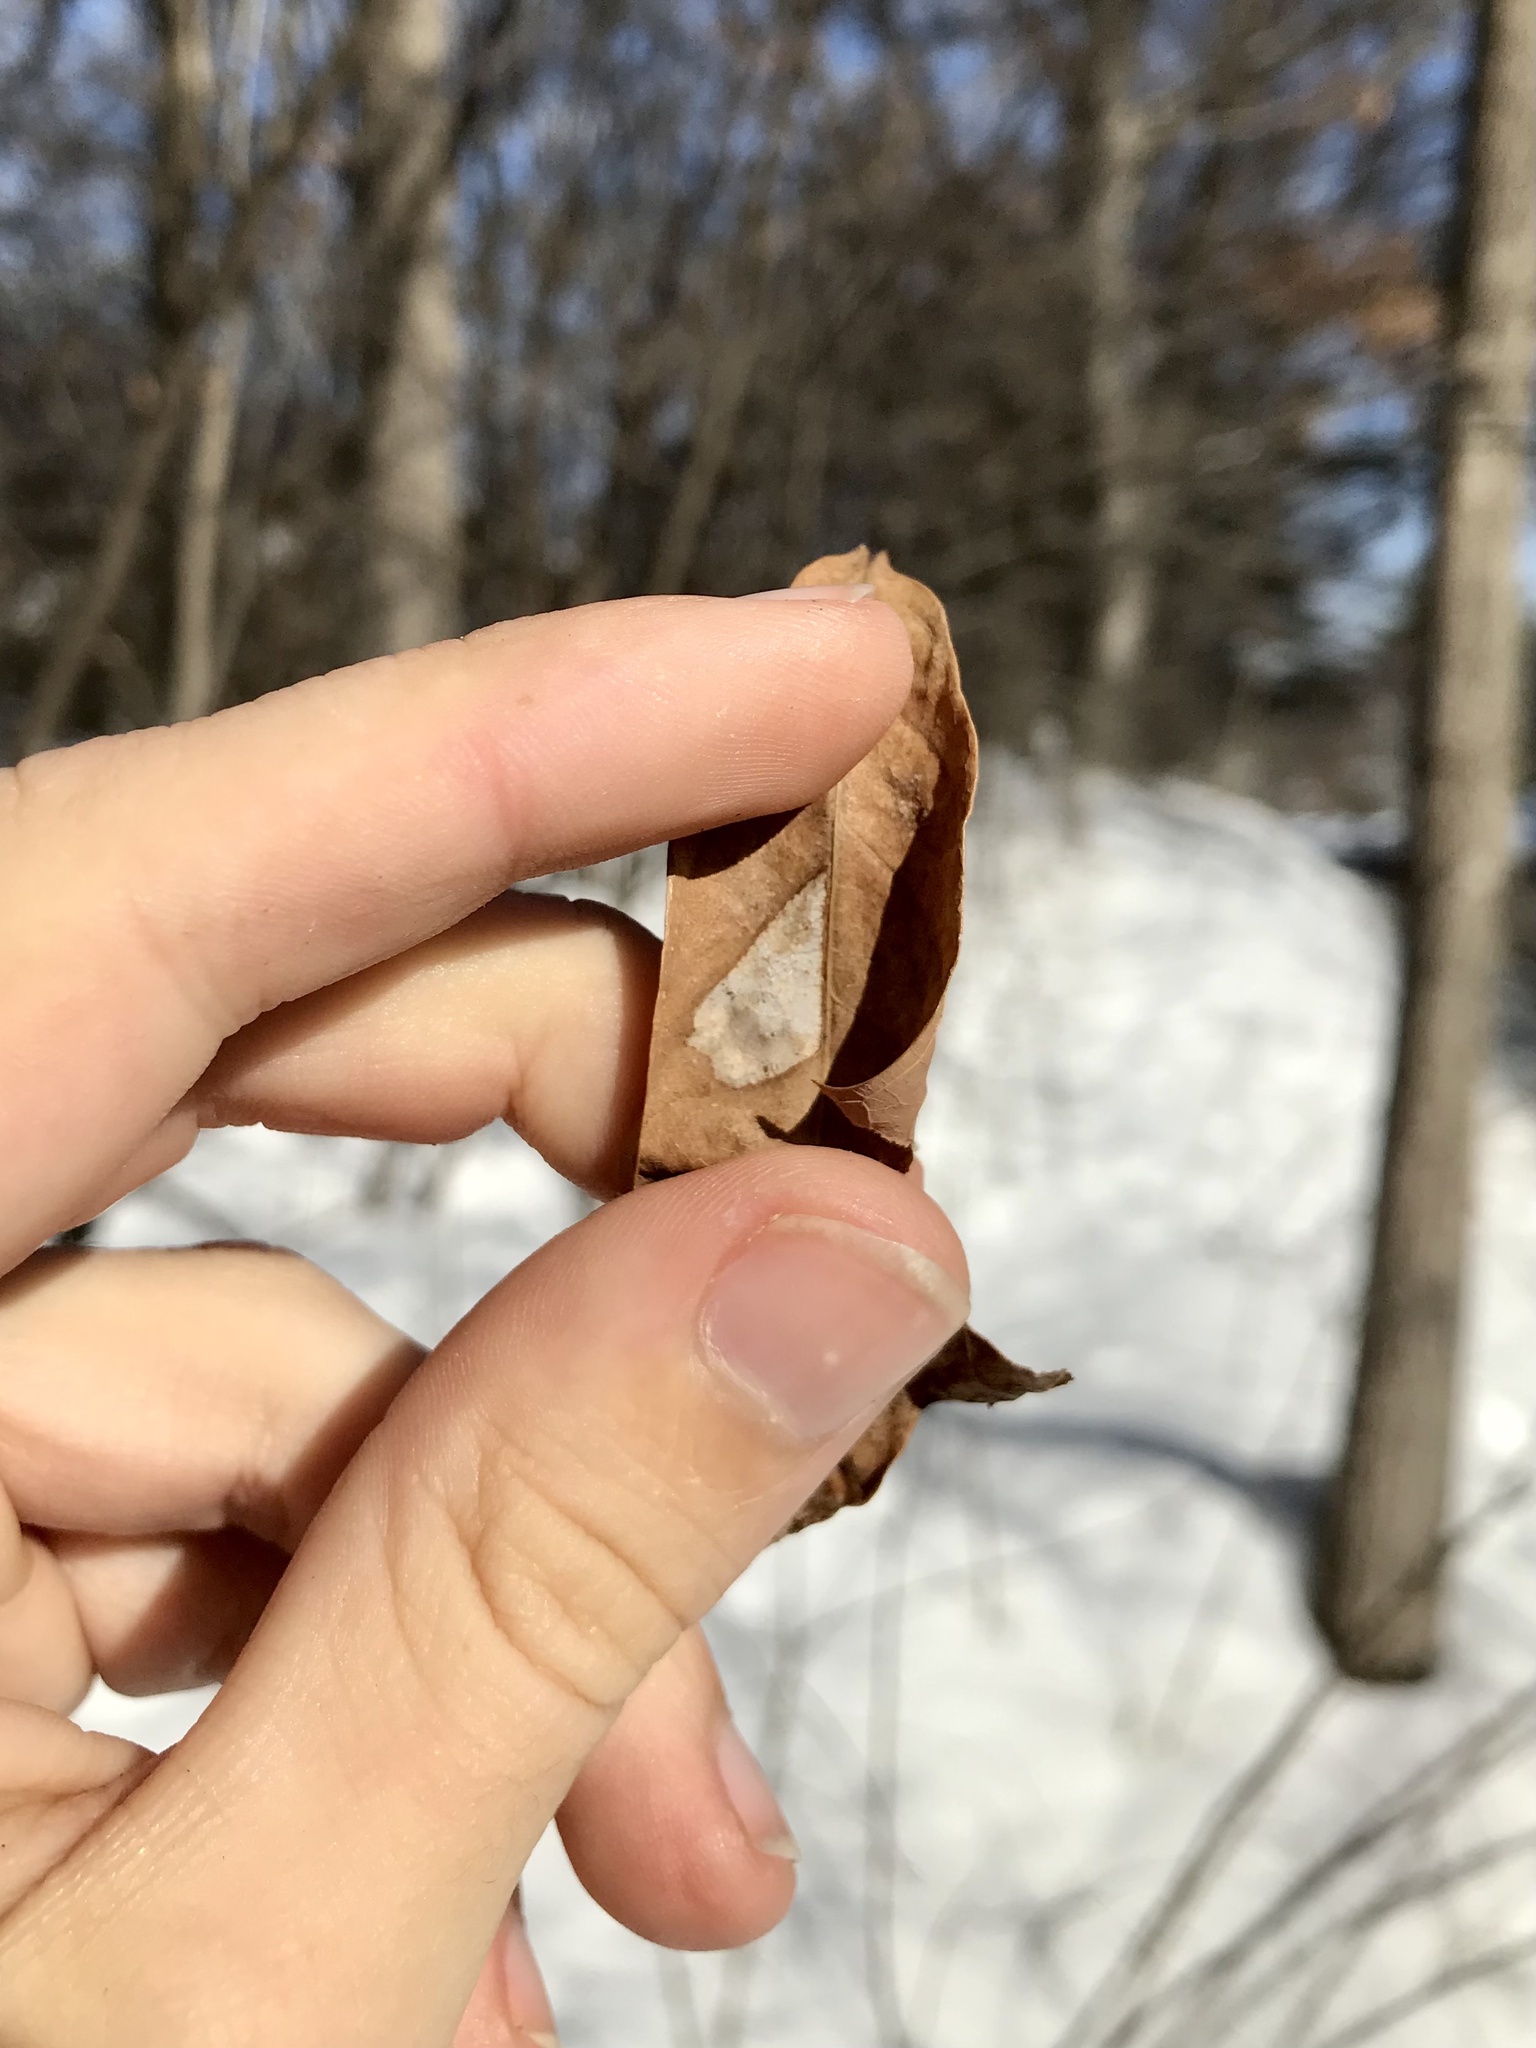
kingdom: Animalia
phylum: Arthropoda
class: Insecta
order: Lepidoptera
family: Gracillariidae
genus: Phyllonorycter
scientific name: Phyllonorycter basistrigella
